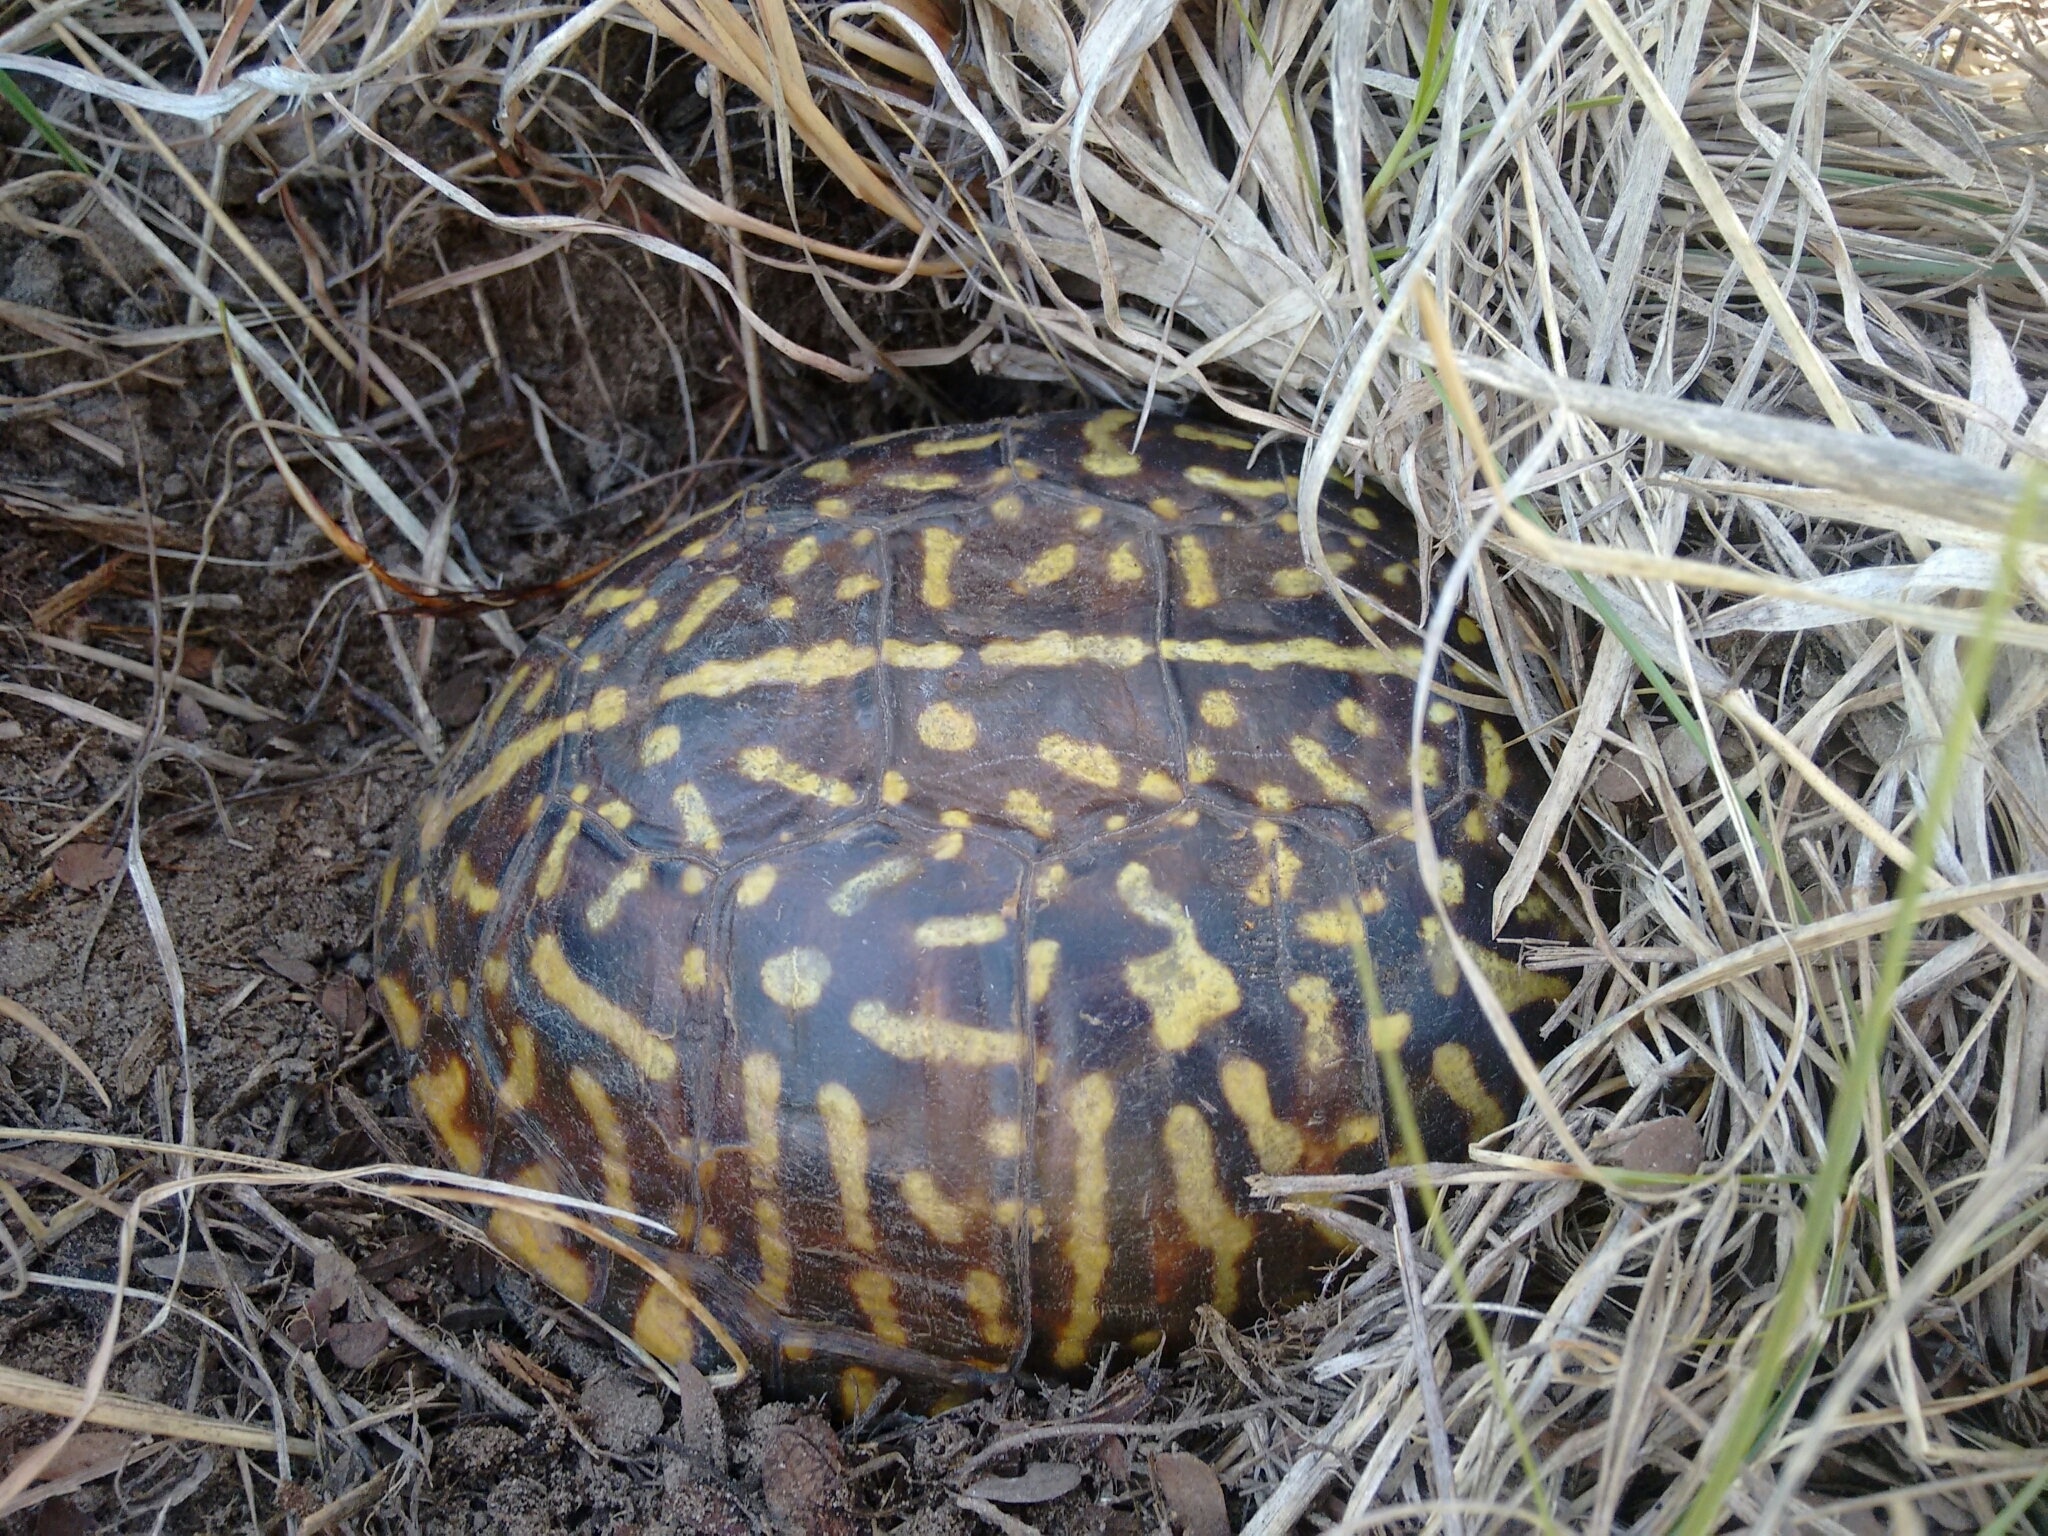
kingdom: Animalia
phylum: Chordata
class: Testudines
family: Emydidae
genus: Terrapene
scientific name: Terrapene ornata
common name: Western box turtle
